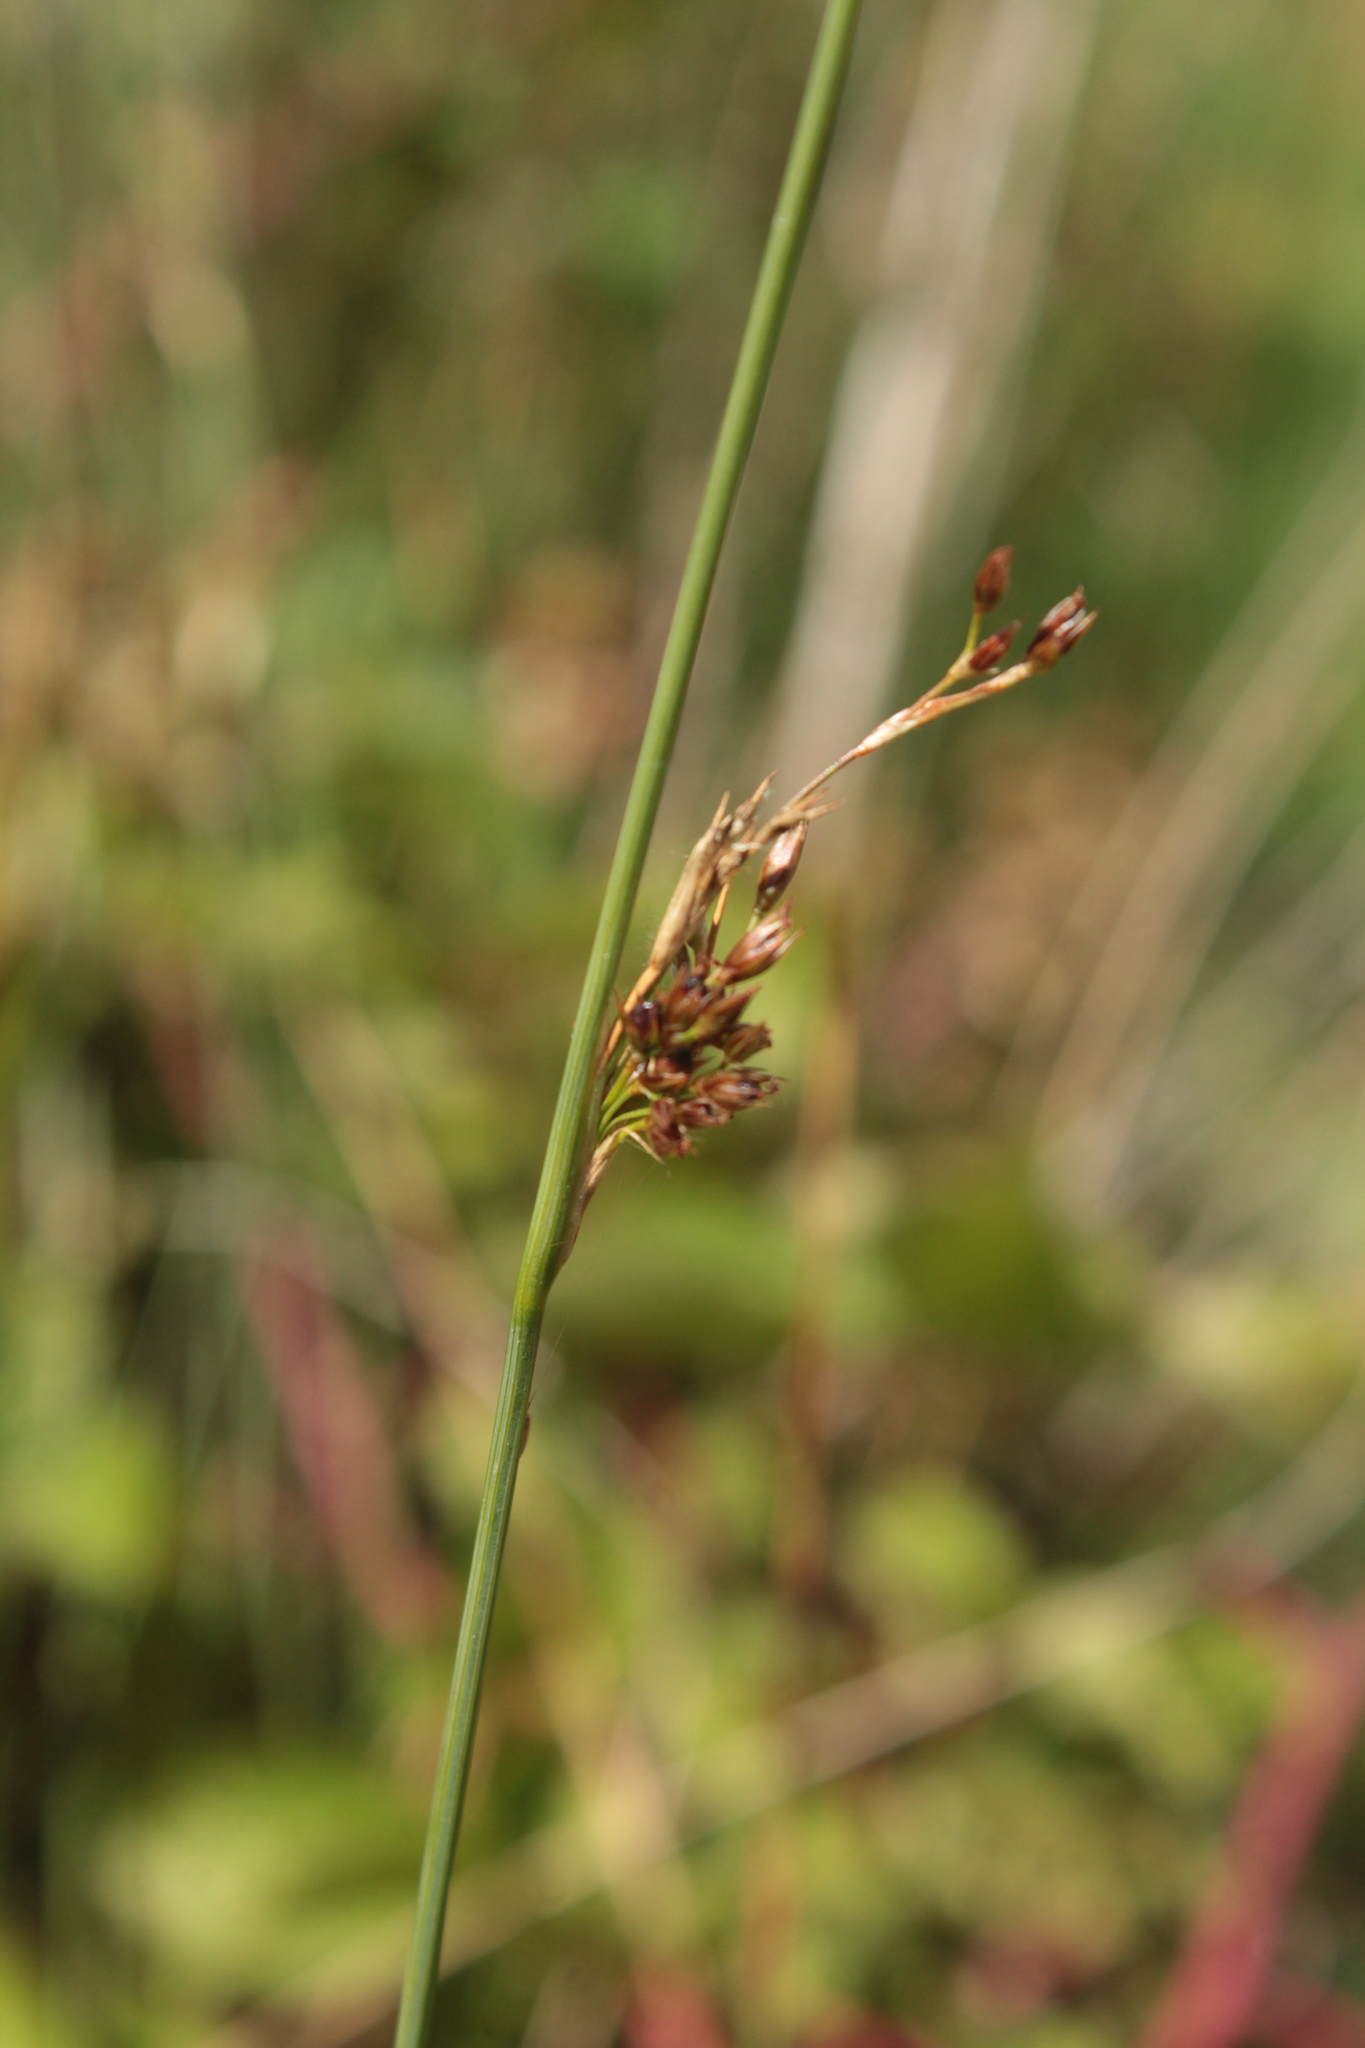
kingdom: Plantae
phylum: Tracheophyta
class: Liliopsida
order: Poales
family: Juncaceae
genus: Juncus
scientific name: Juncus inflexus
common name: Hard rush
